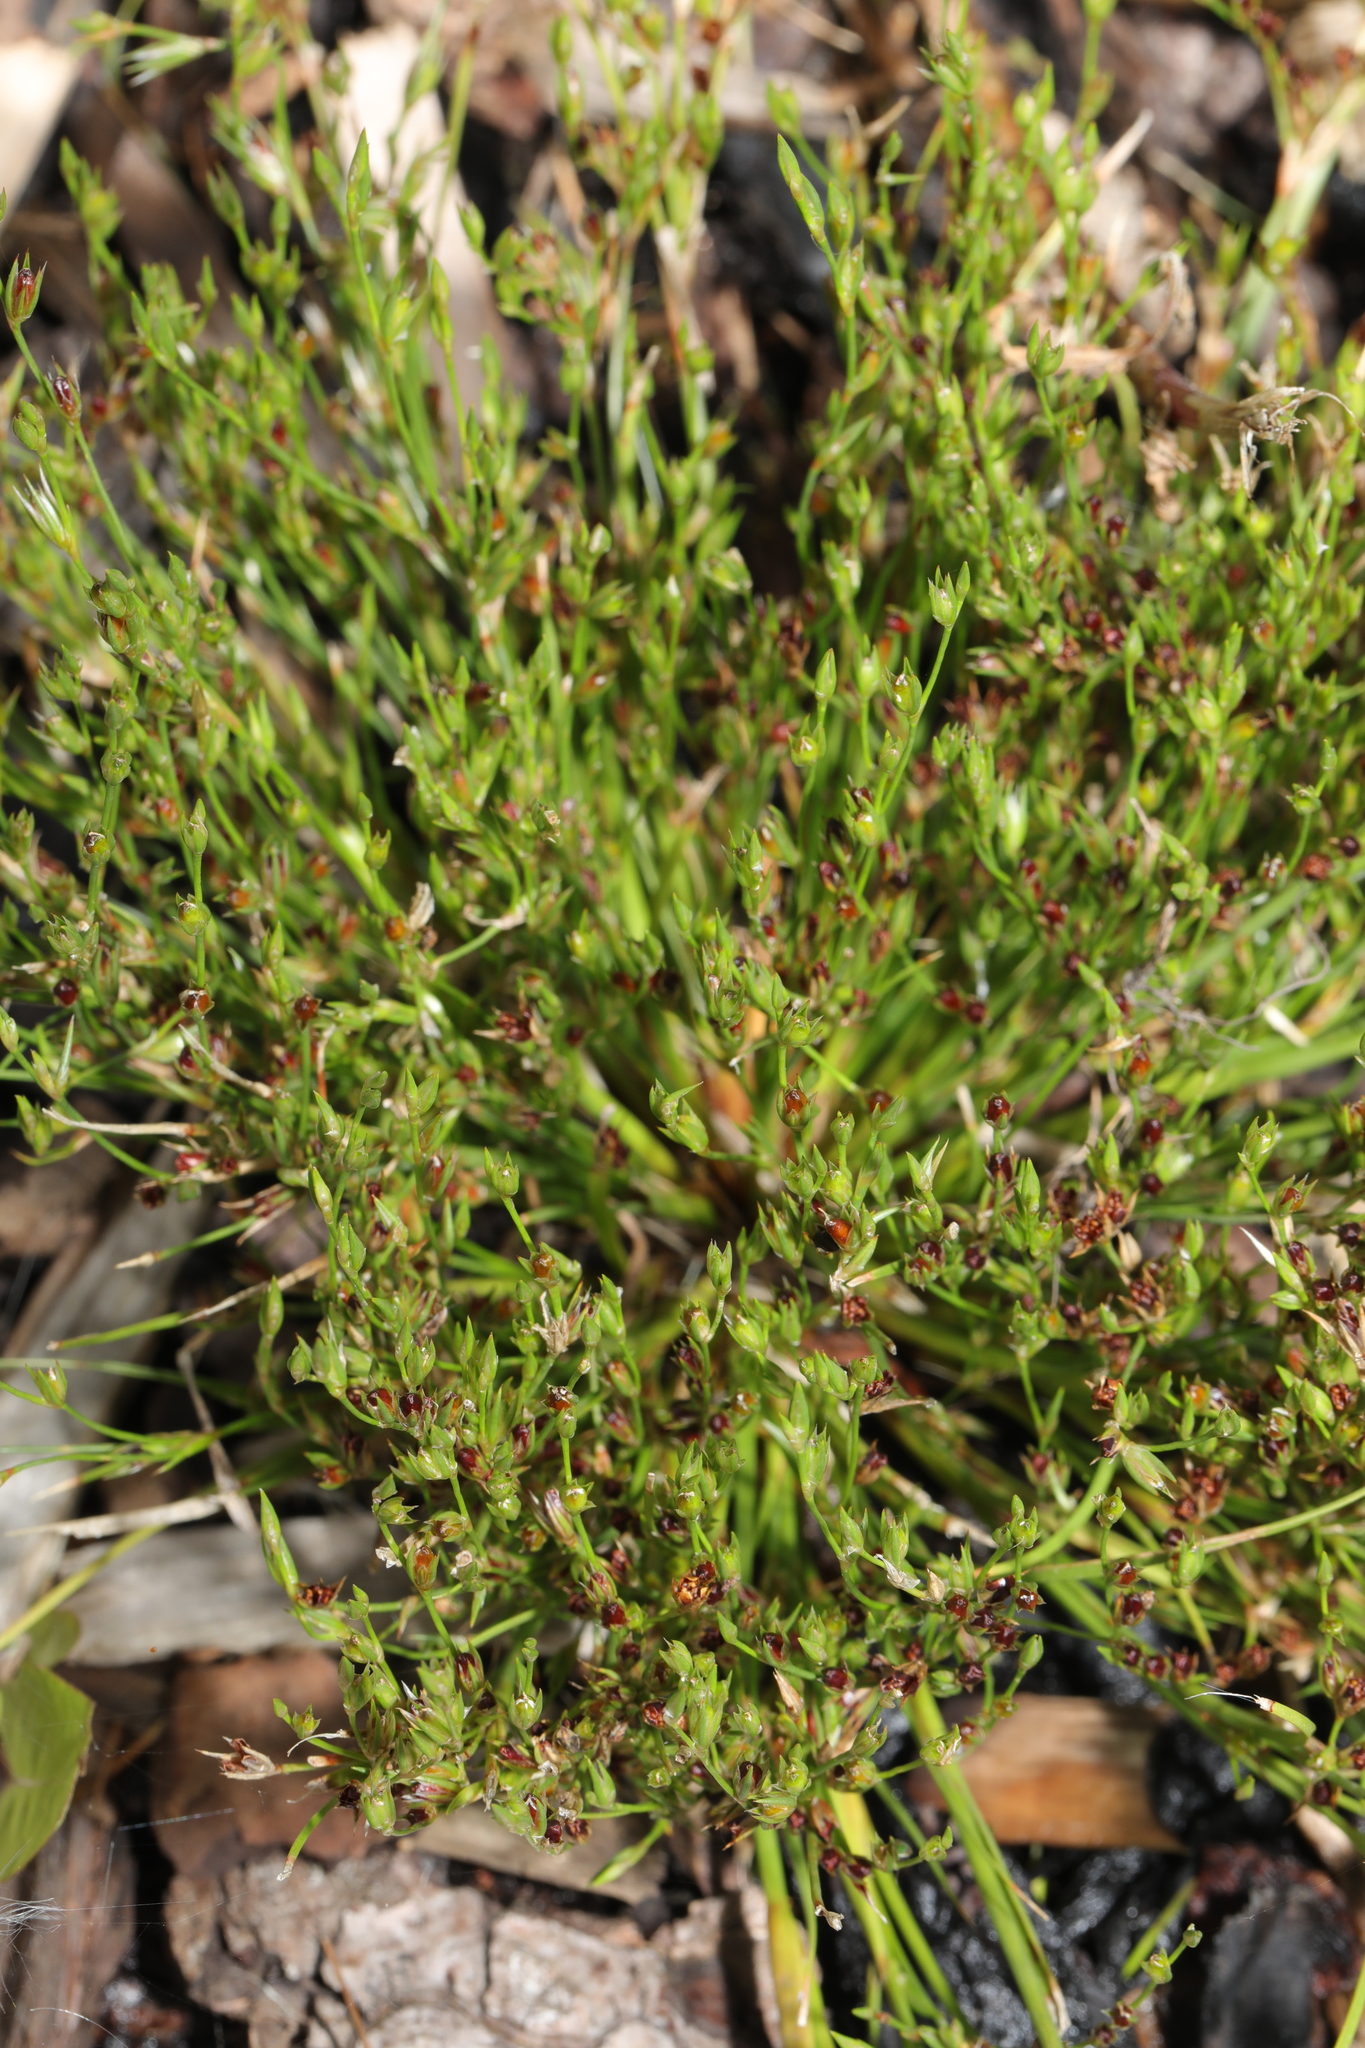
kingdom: Plantae
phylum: Tracheophyta
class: Liliopsida
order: Poales
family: Juncaceae
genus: Juncus
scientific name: Juncus bufonius
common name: Toad rush
